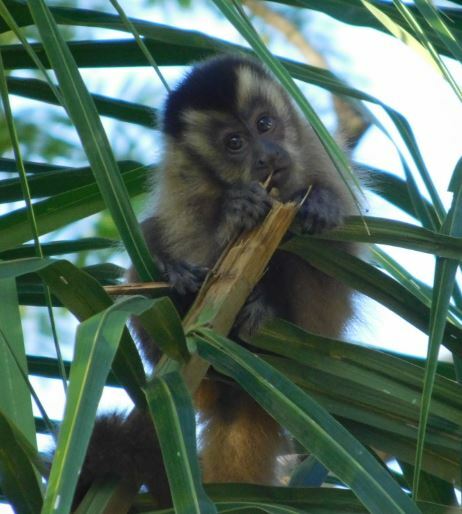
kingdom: Animalia
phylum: Chordata
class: Mammalia
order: Primates
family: Cebidae
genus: Sapajus
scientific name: Sapajus cay
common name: Hooded capuchin
